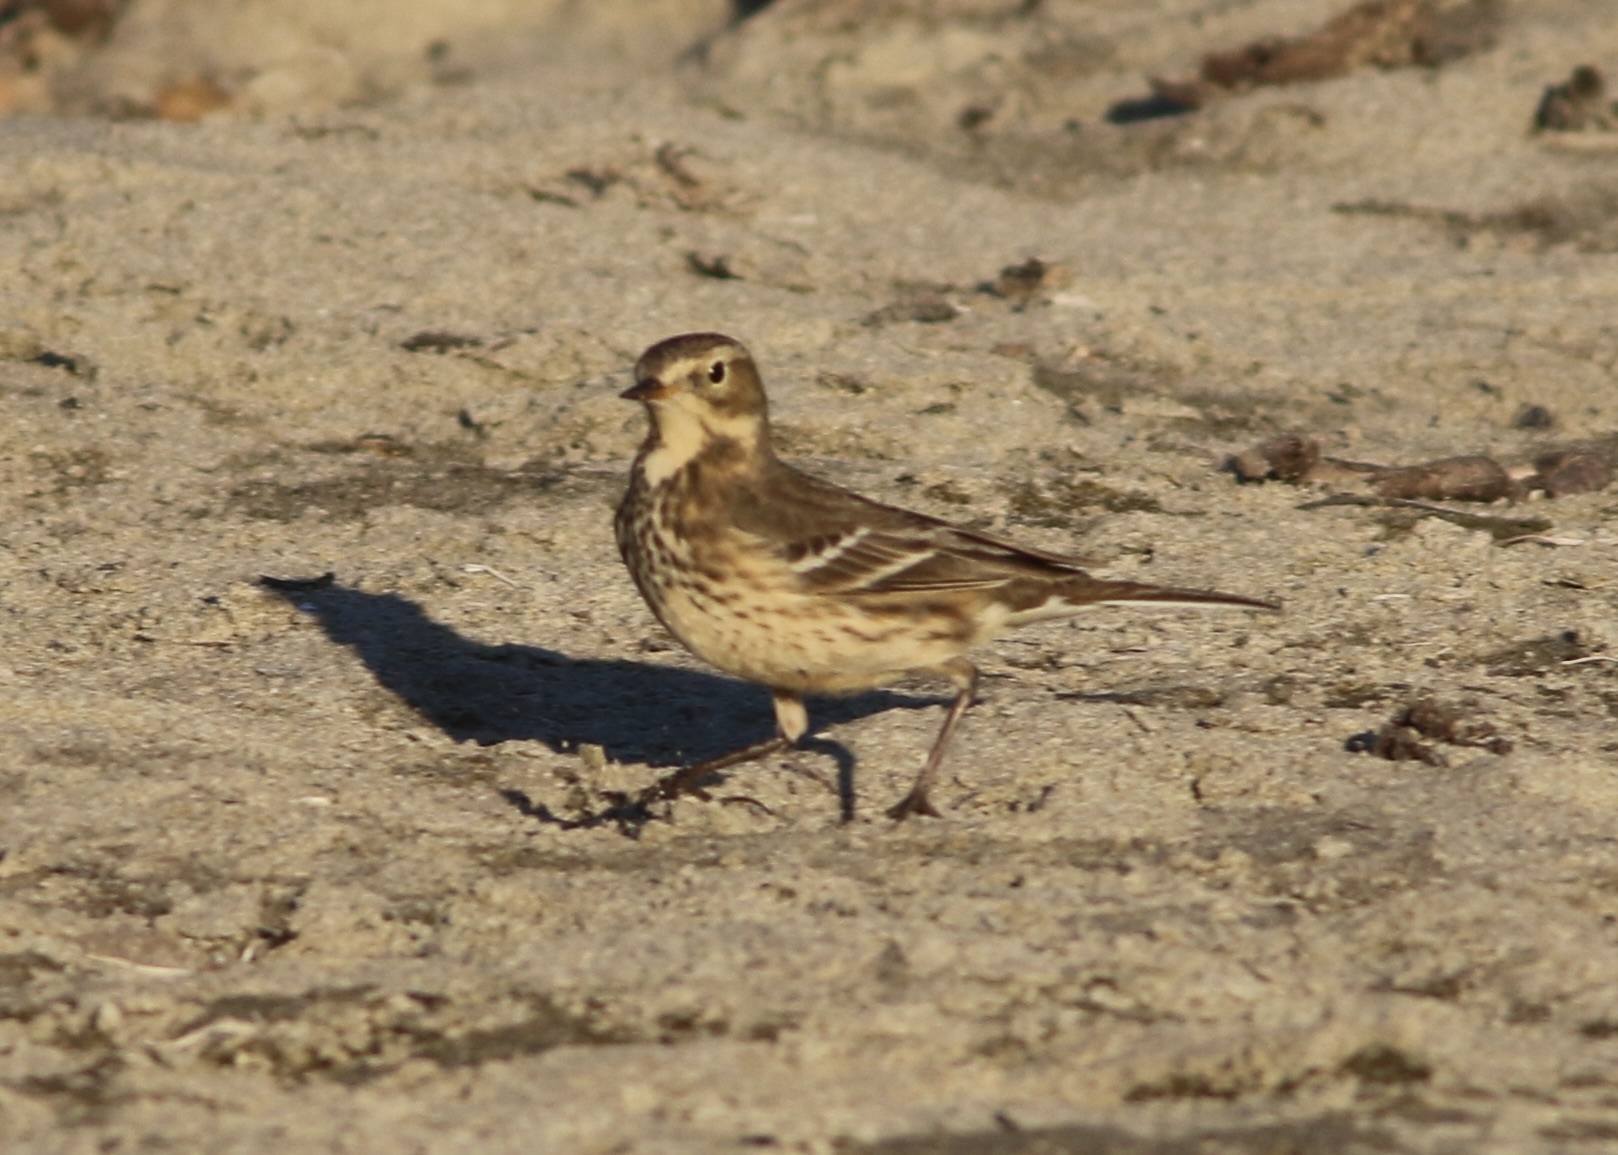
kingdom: Animalia
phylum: Chordata
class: Aves
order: Passeriformes
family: Motacillidae
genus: Anthus
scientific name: Anthus rubescens
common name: Buff-bellied pipit
